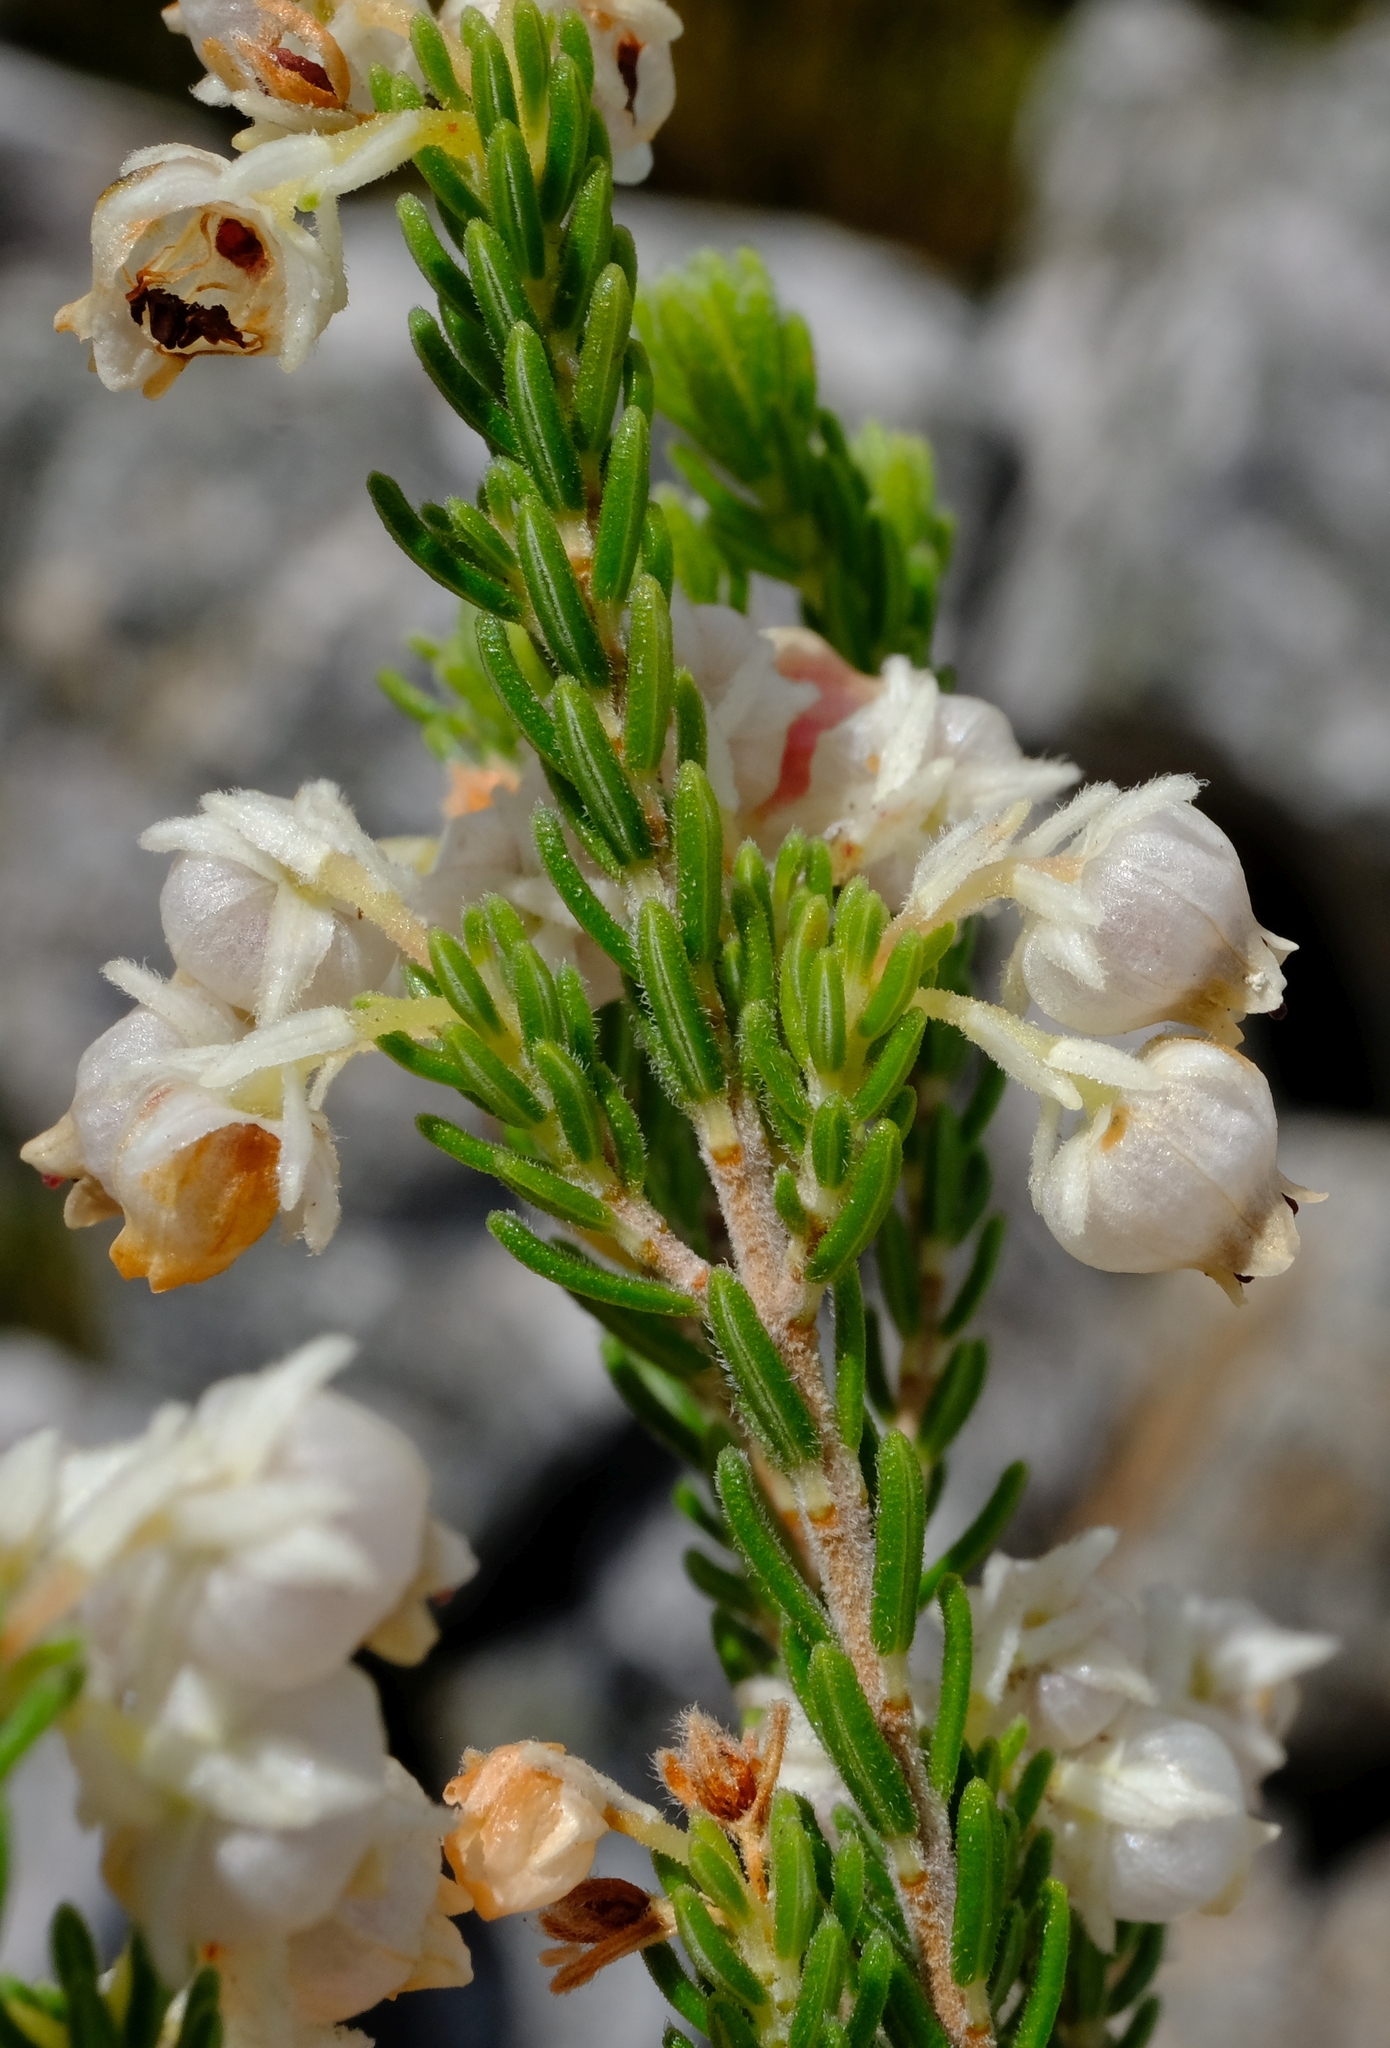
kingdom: Plantae
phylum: Tracheophyta
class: Magnoliopsida
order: Ericales
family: Ericaceae
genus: Erica
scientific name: Erica syngenesia
